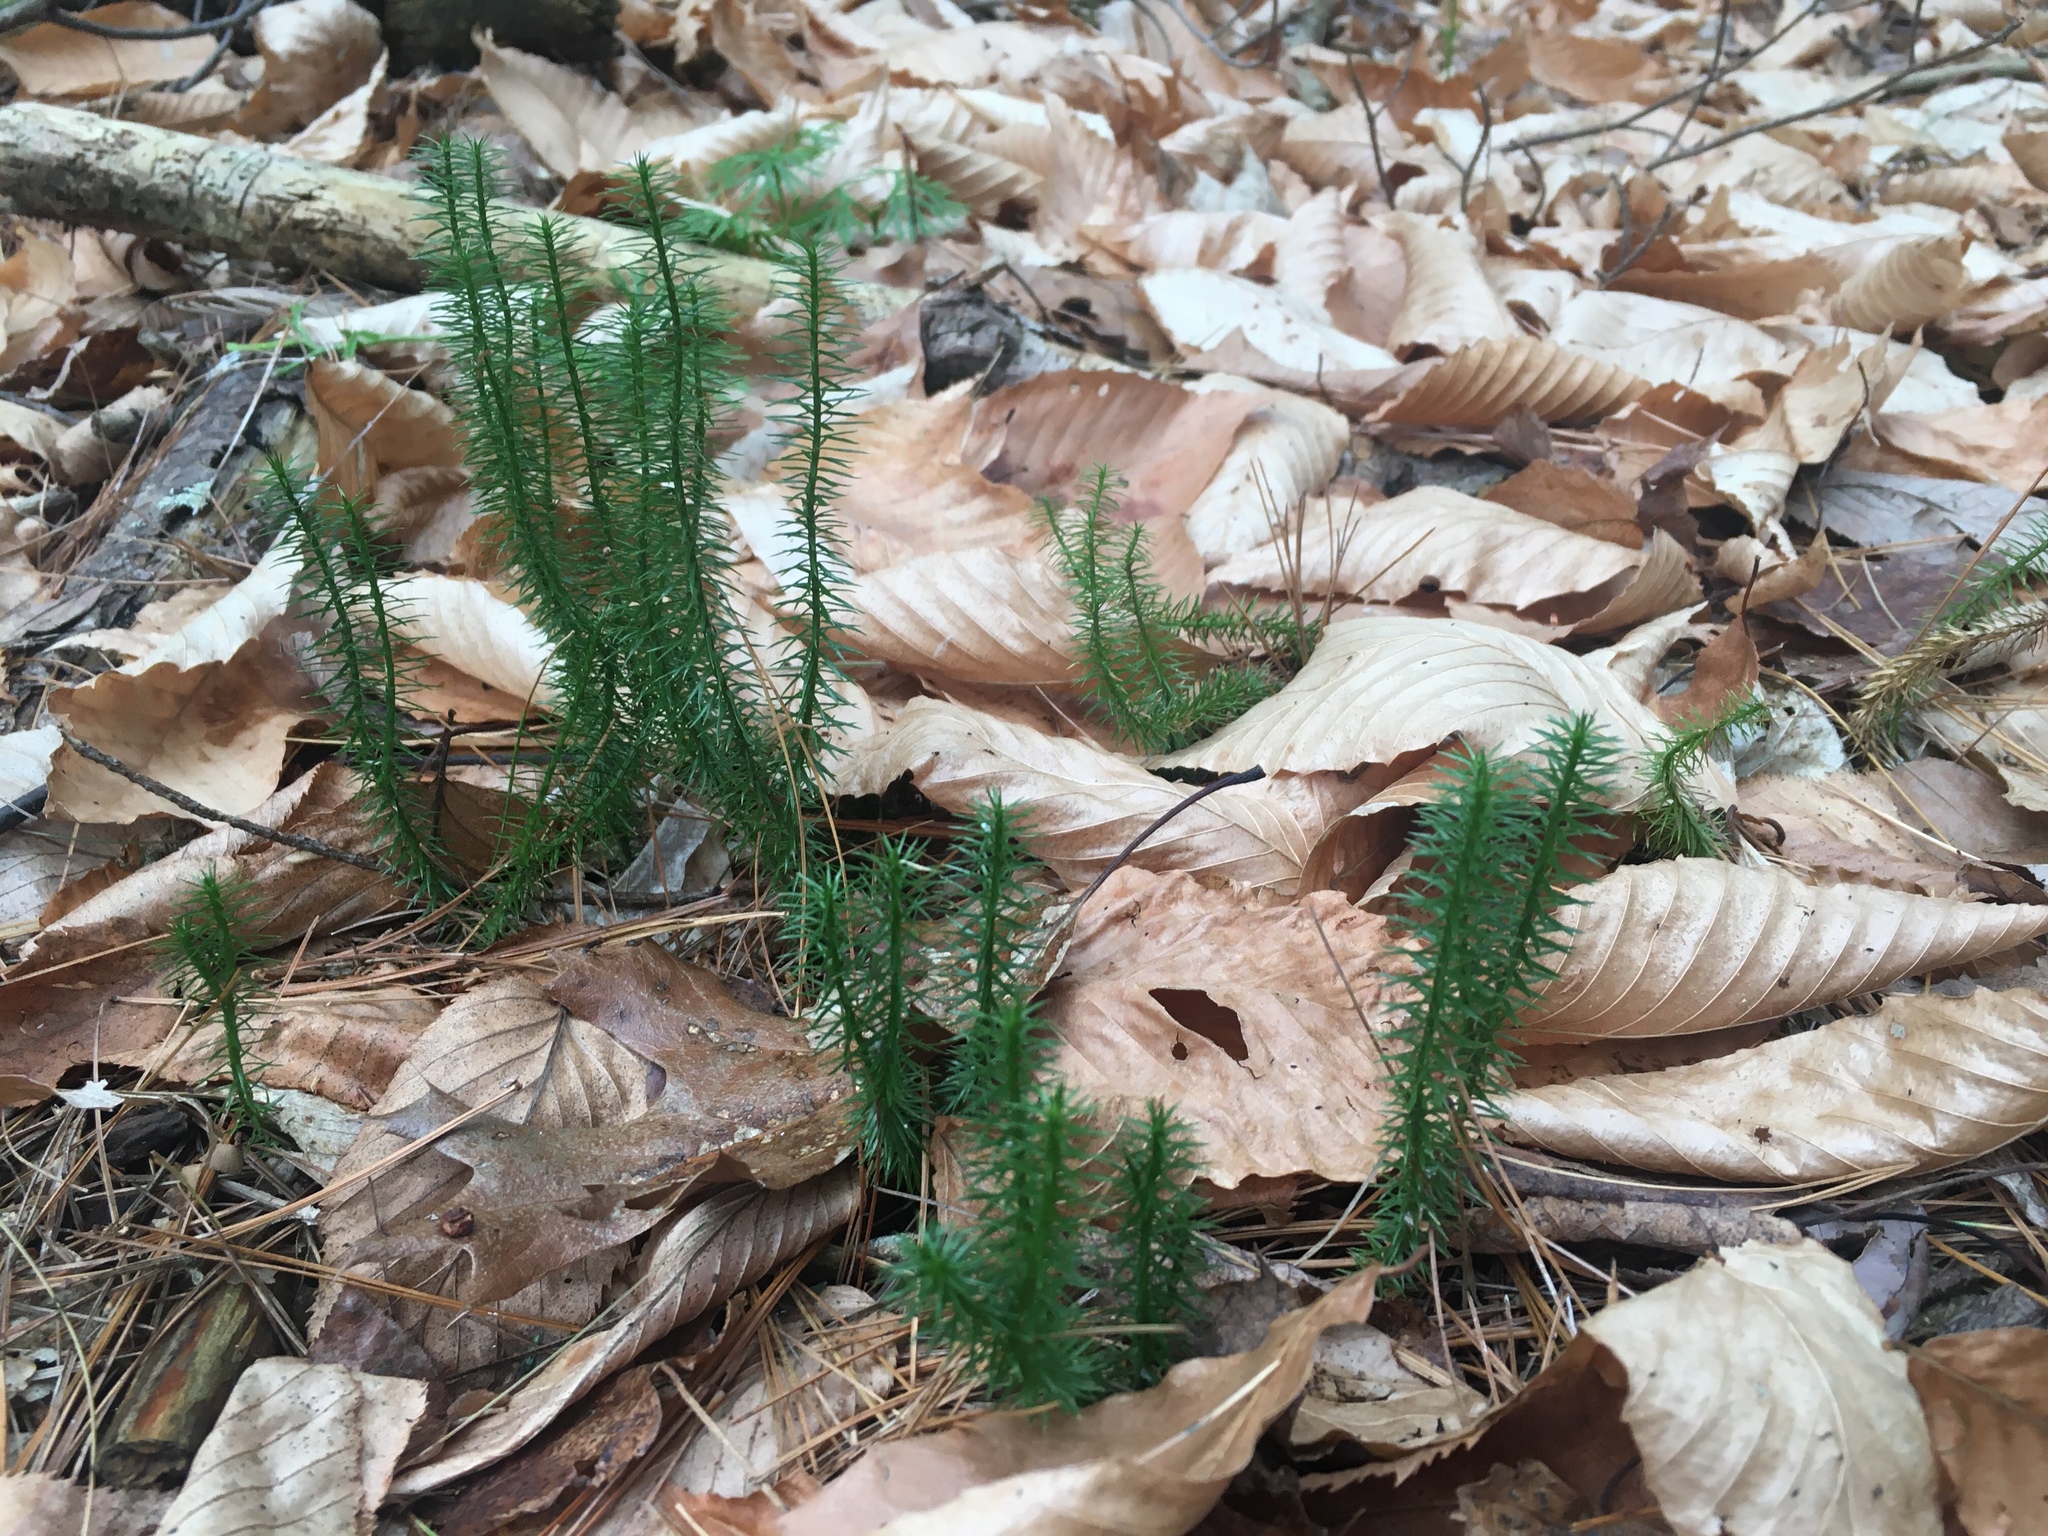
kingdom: Plantae
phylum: Tracheophyta
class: Lycopodiopsida
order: Lycopodiales
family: Lycopodiaceae
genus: Spinulum
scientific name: Spinulum annotinum
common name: Interrupted club-moss
